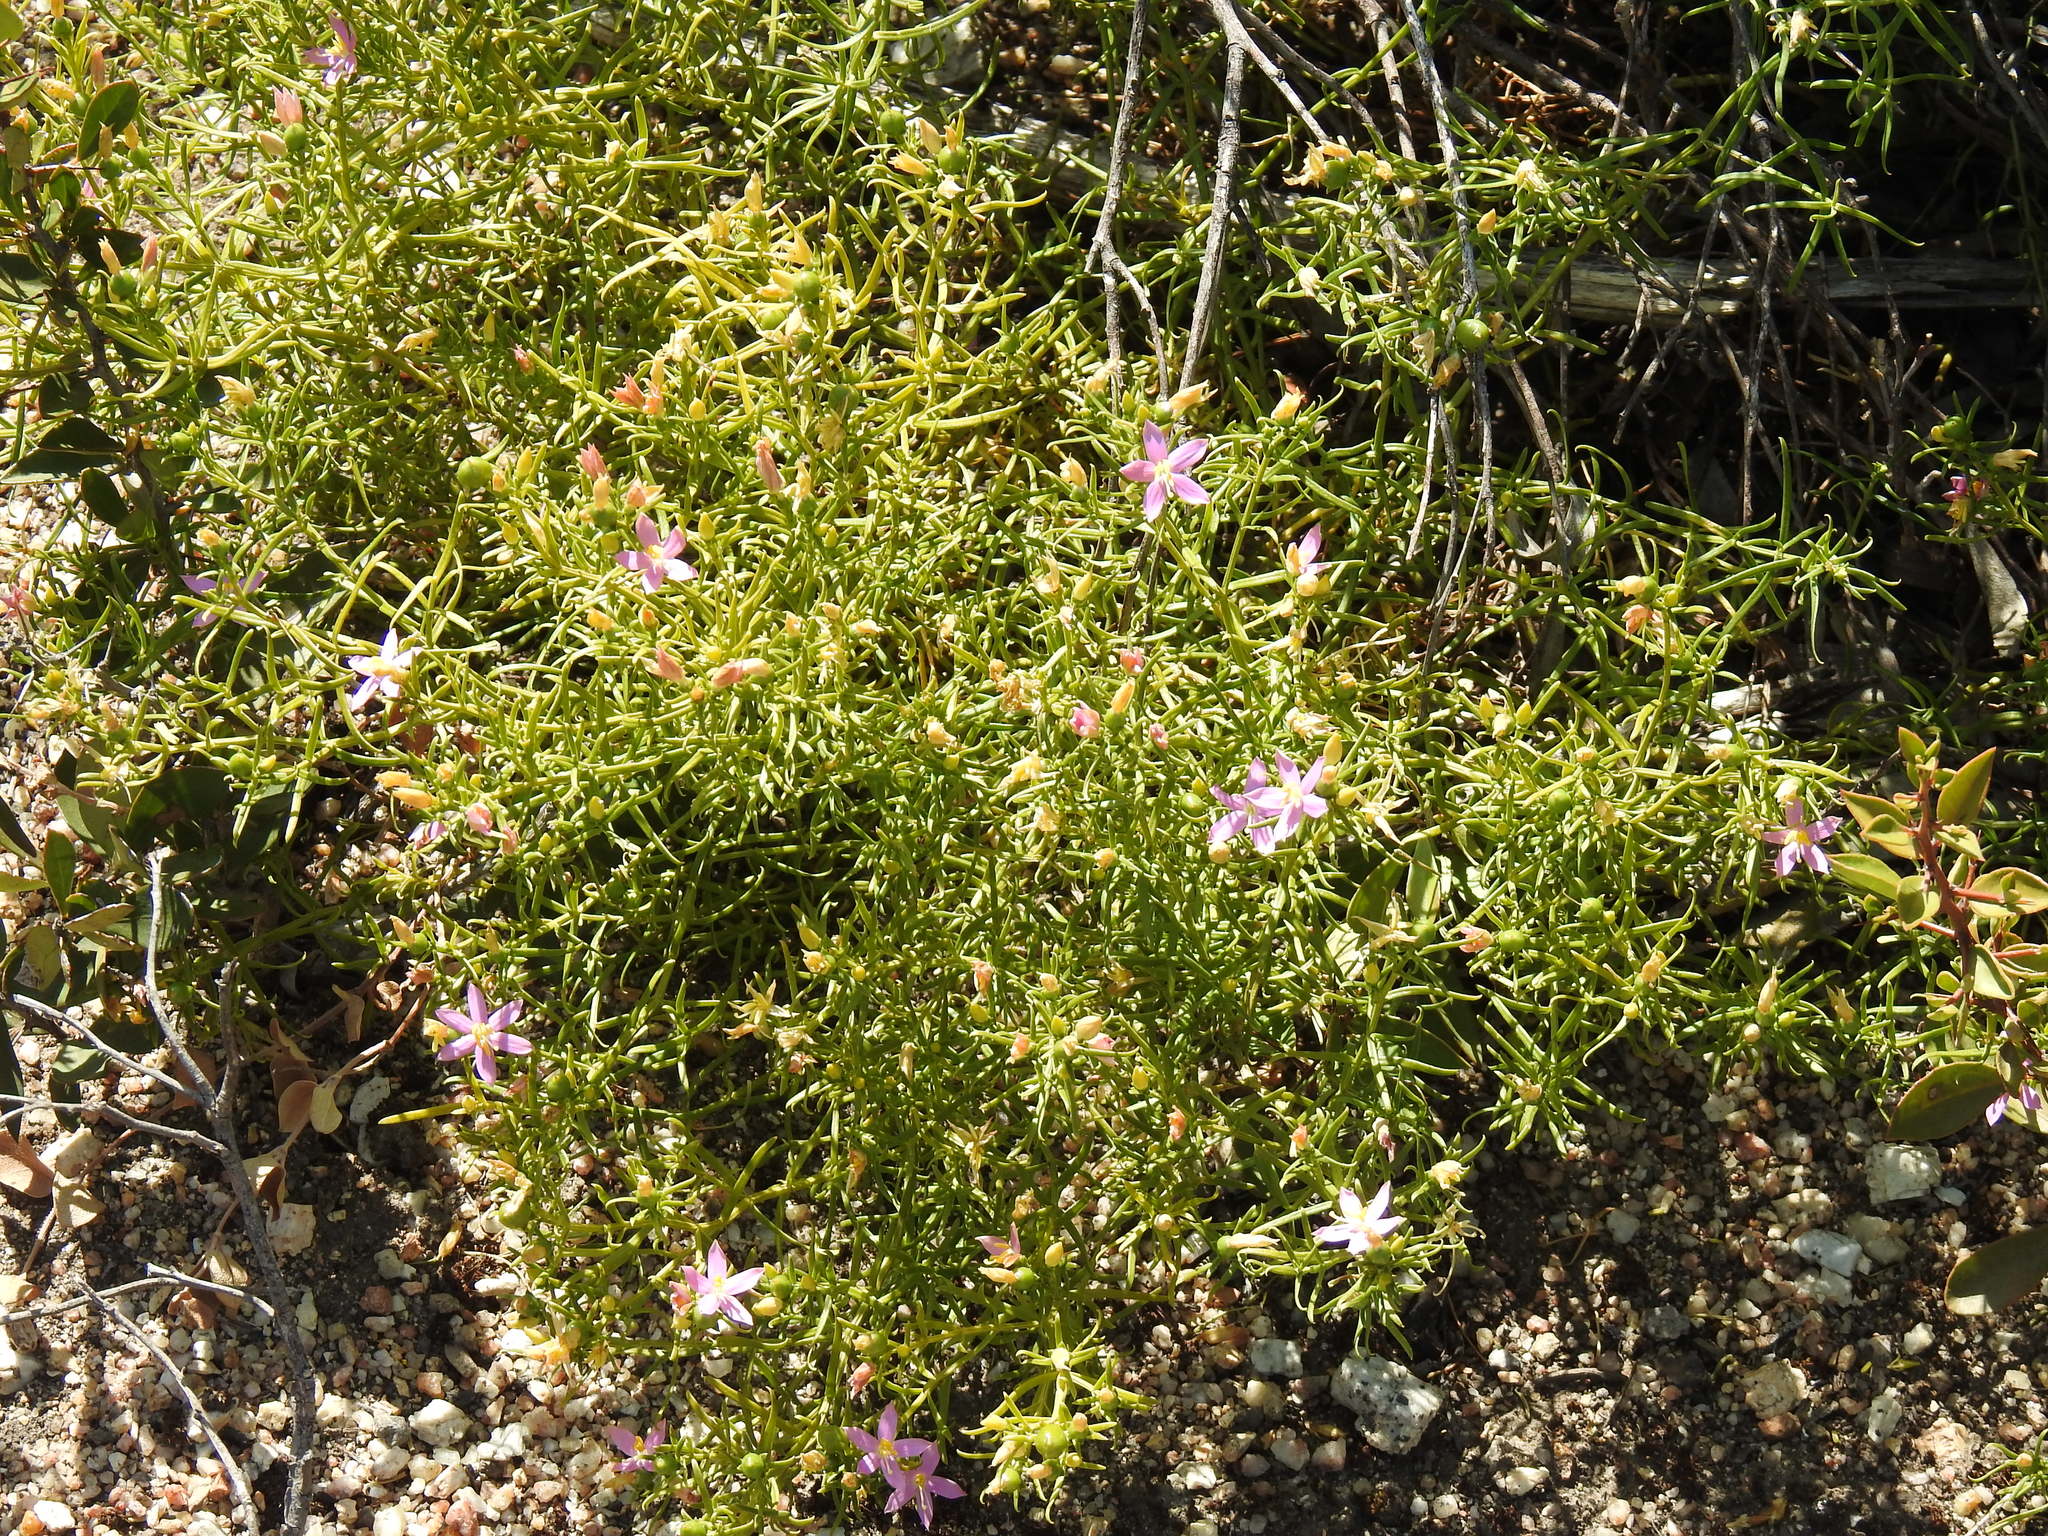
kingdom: Plantae
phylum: Tracheophyta
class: Magnoliopsida
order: Gentianales
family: Gentianaceae
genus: Chironia
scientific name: Chironia baccifera
